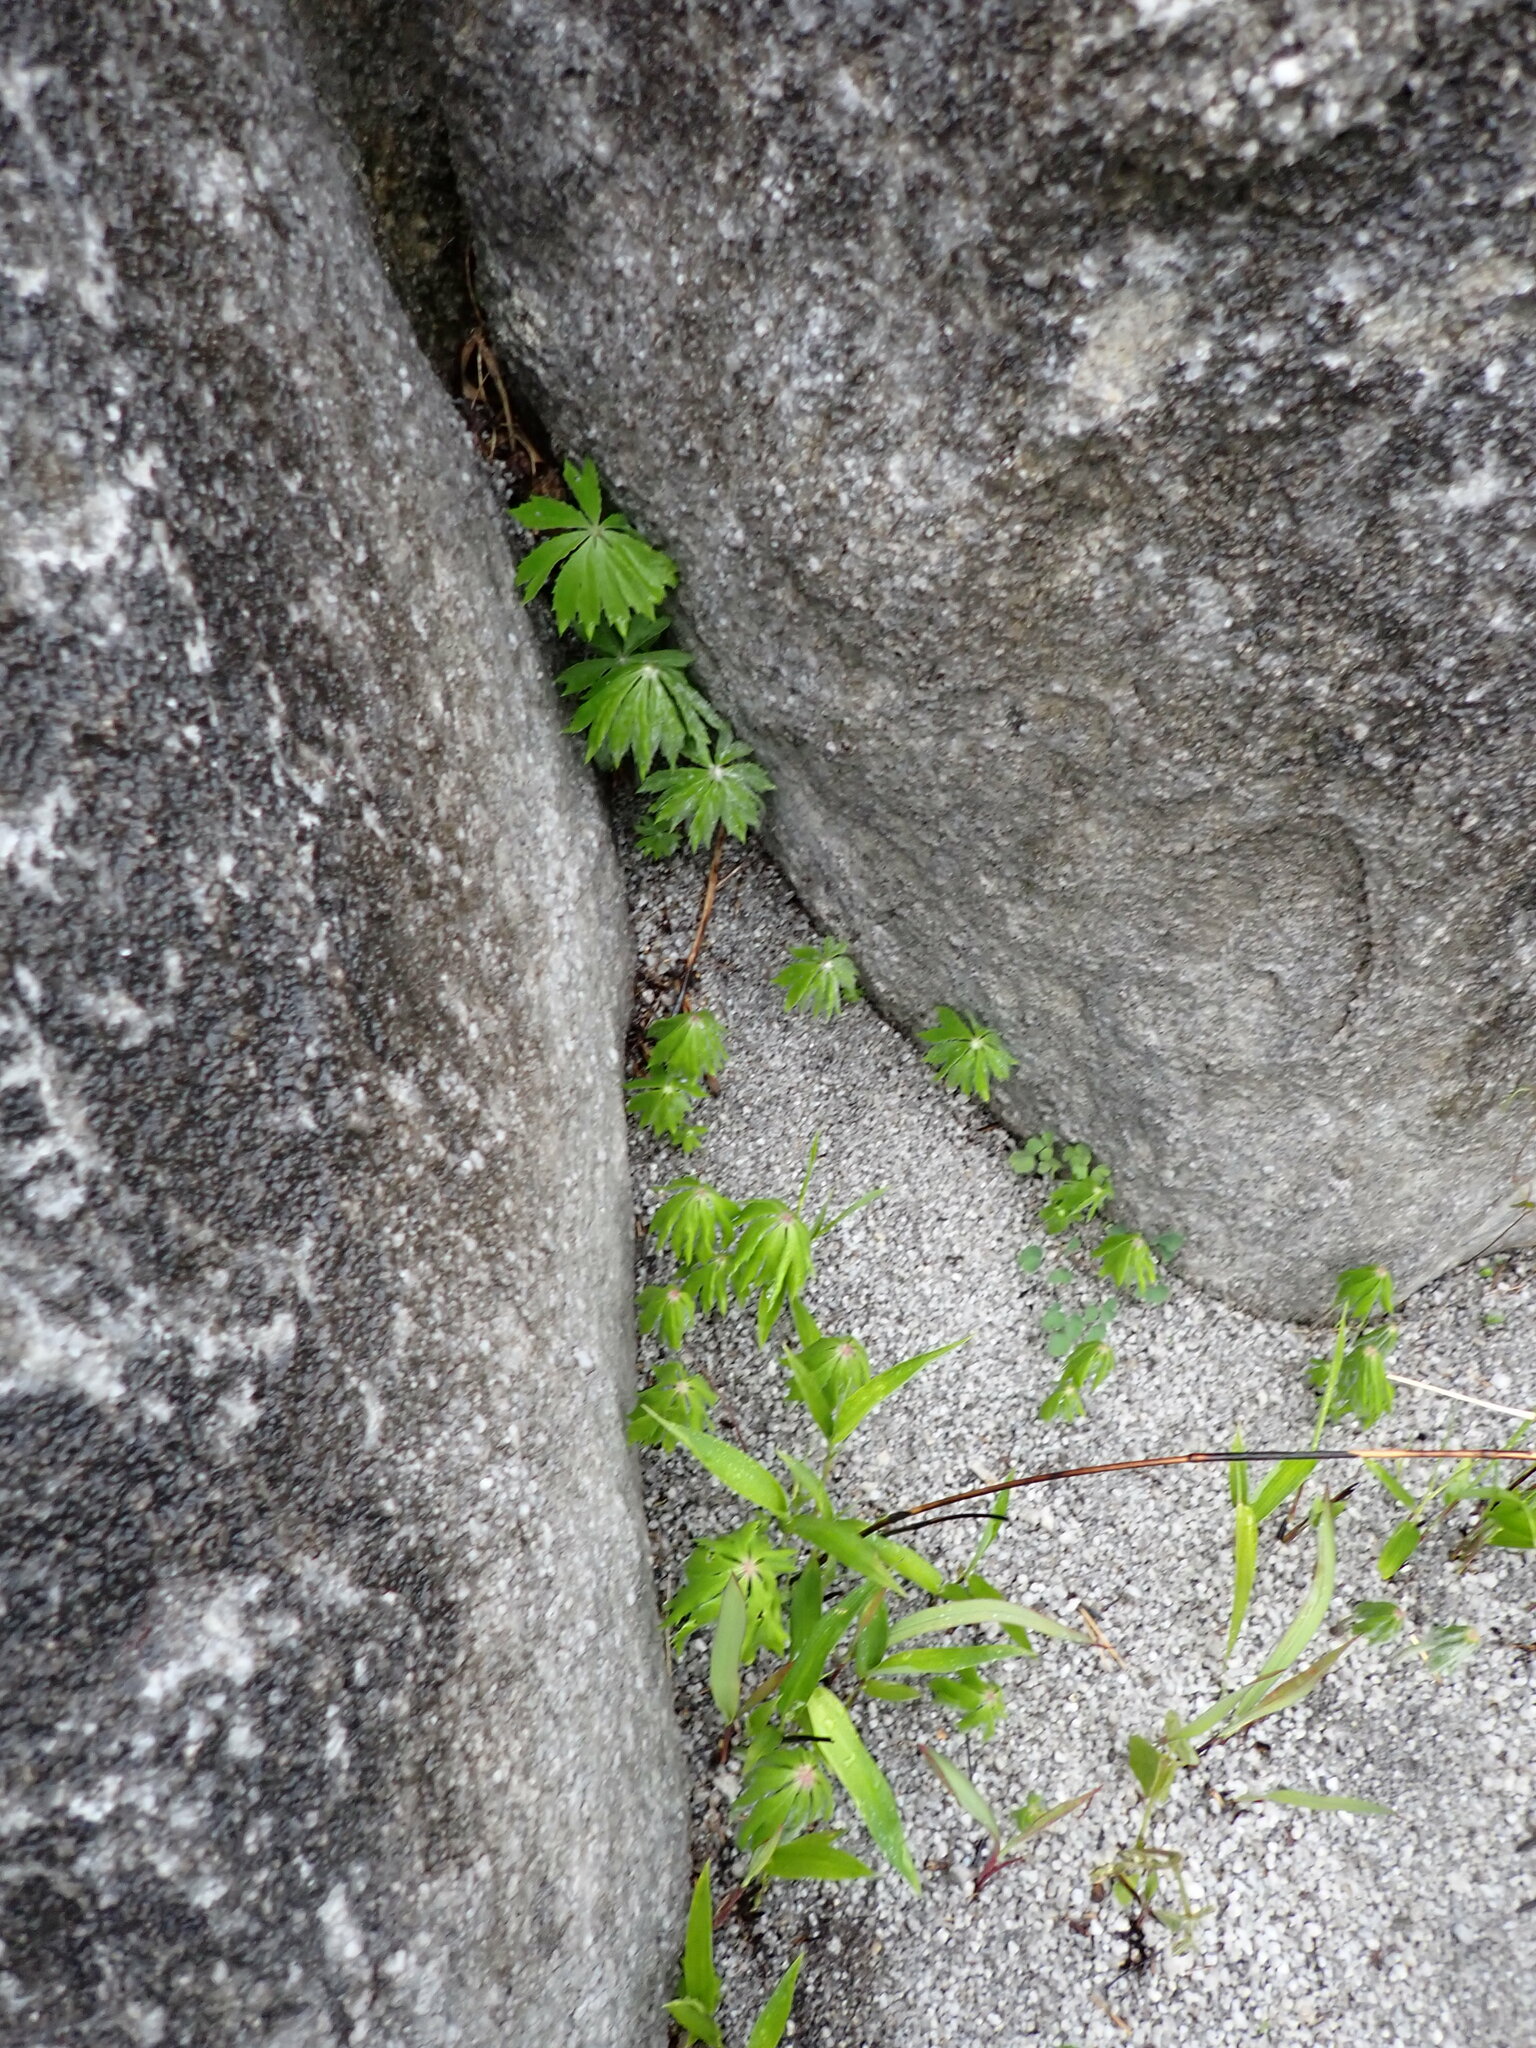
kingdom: Plantae
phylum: Tracheophyta
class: Magnoliopsida
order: Asterales
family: Asteraceae
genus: Syneilesis
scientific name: Syneilesis palmata
